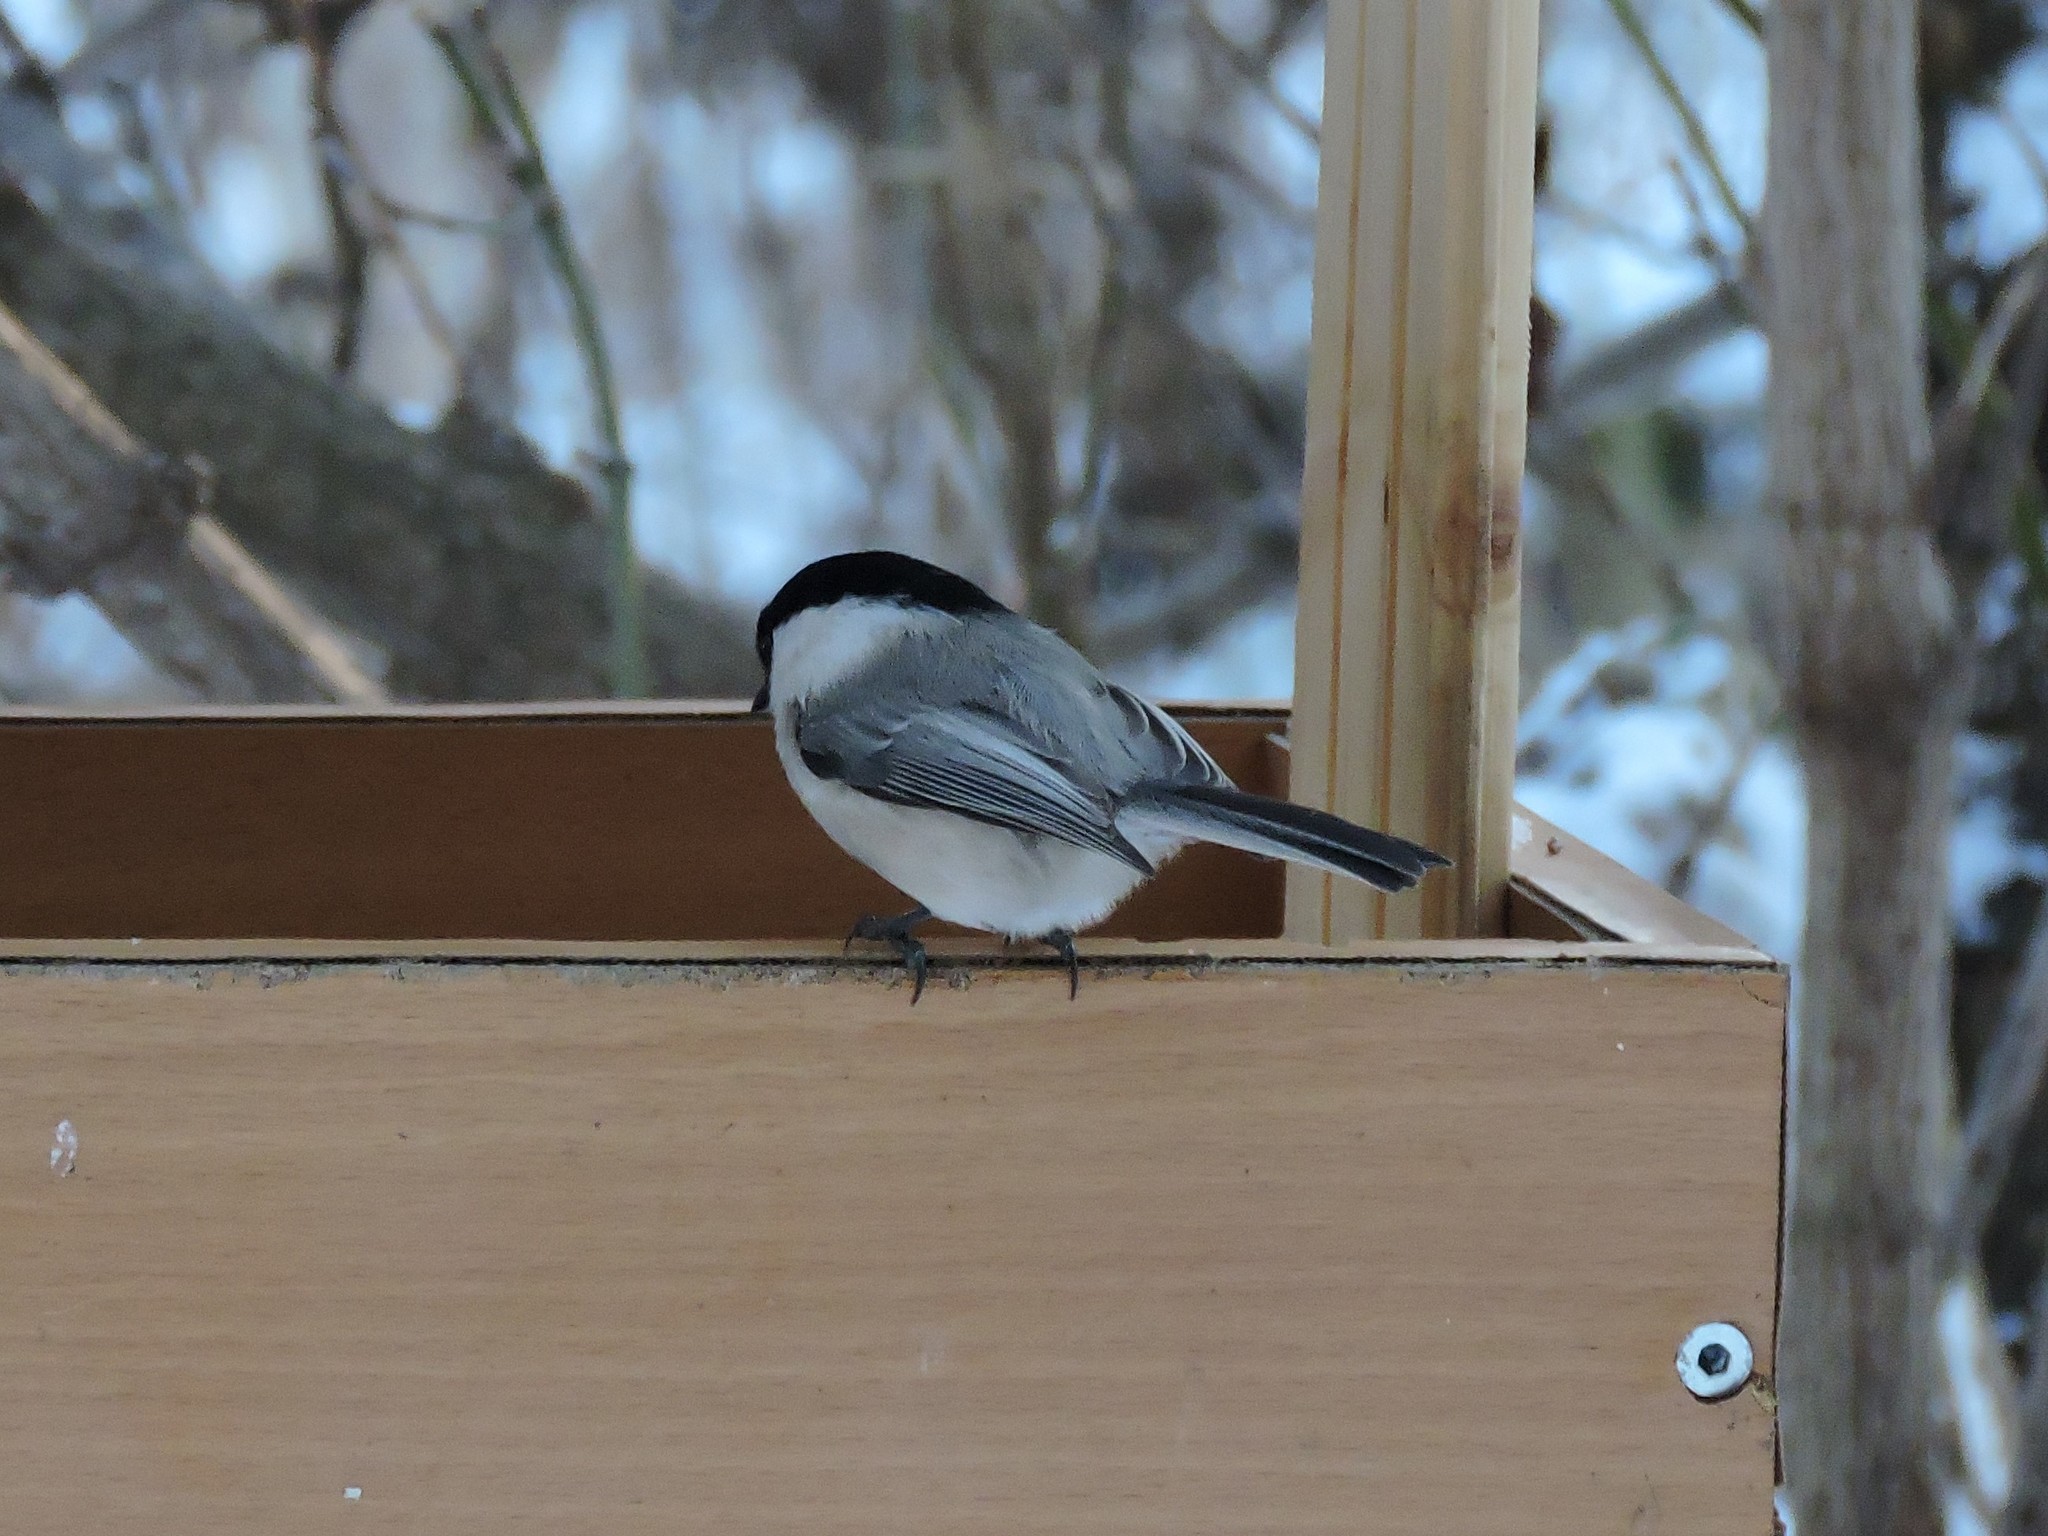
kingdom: Animalia
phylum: Chordata
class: Aves
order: Passeriformes
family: Paridae
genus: Poecile
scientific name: Poecile montanus
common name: Willow tit
